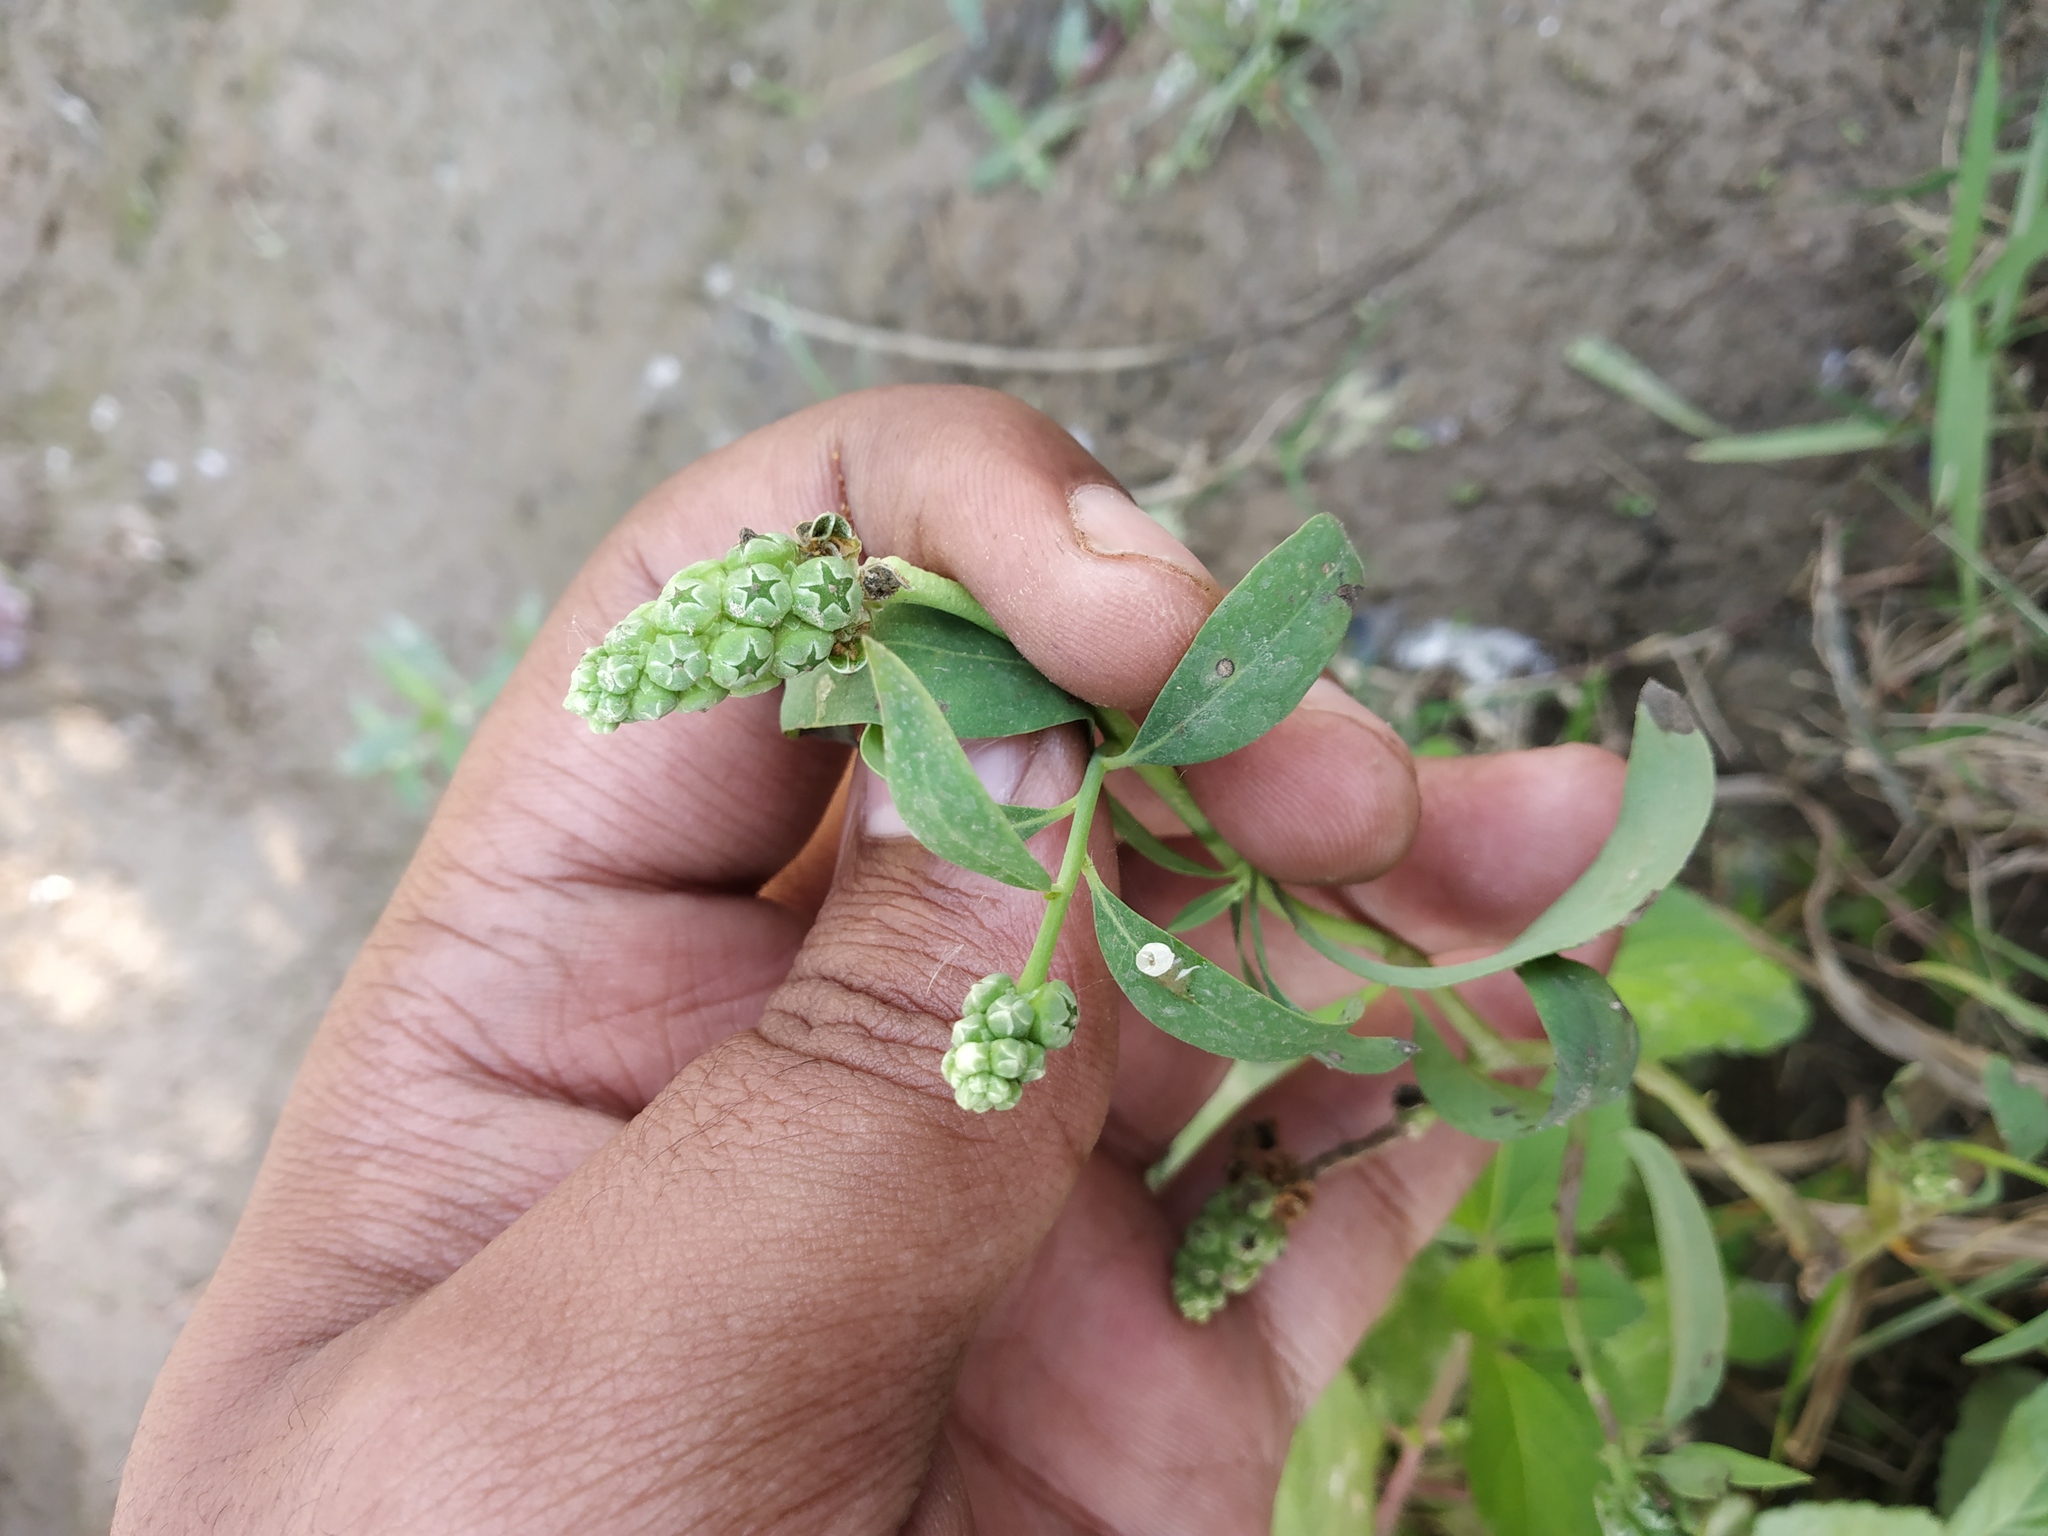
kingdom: Plantae
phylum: Tracheophyta
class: Magnoliopsida
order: Solanales
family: Sphenocleaceae
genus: Sphenoclea
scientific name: Sphenoclea zeylanica
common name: Chickenspike
